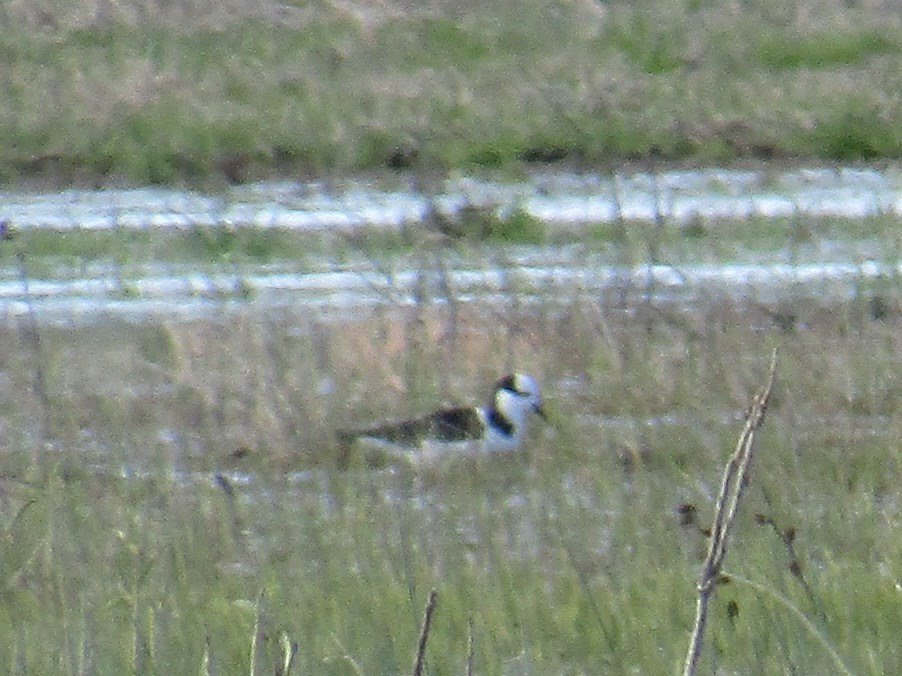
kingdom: Animalia
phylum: Chordata
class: Aves
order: Charadriiformes
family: Recurvirostridae
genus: Himantopus
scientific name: Himantopus mexicanus
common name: Black-necked stilt
